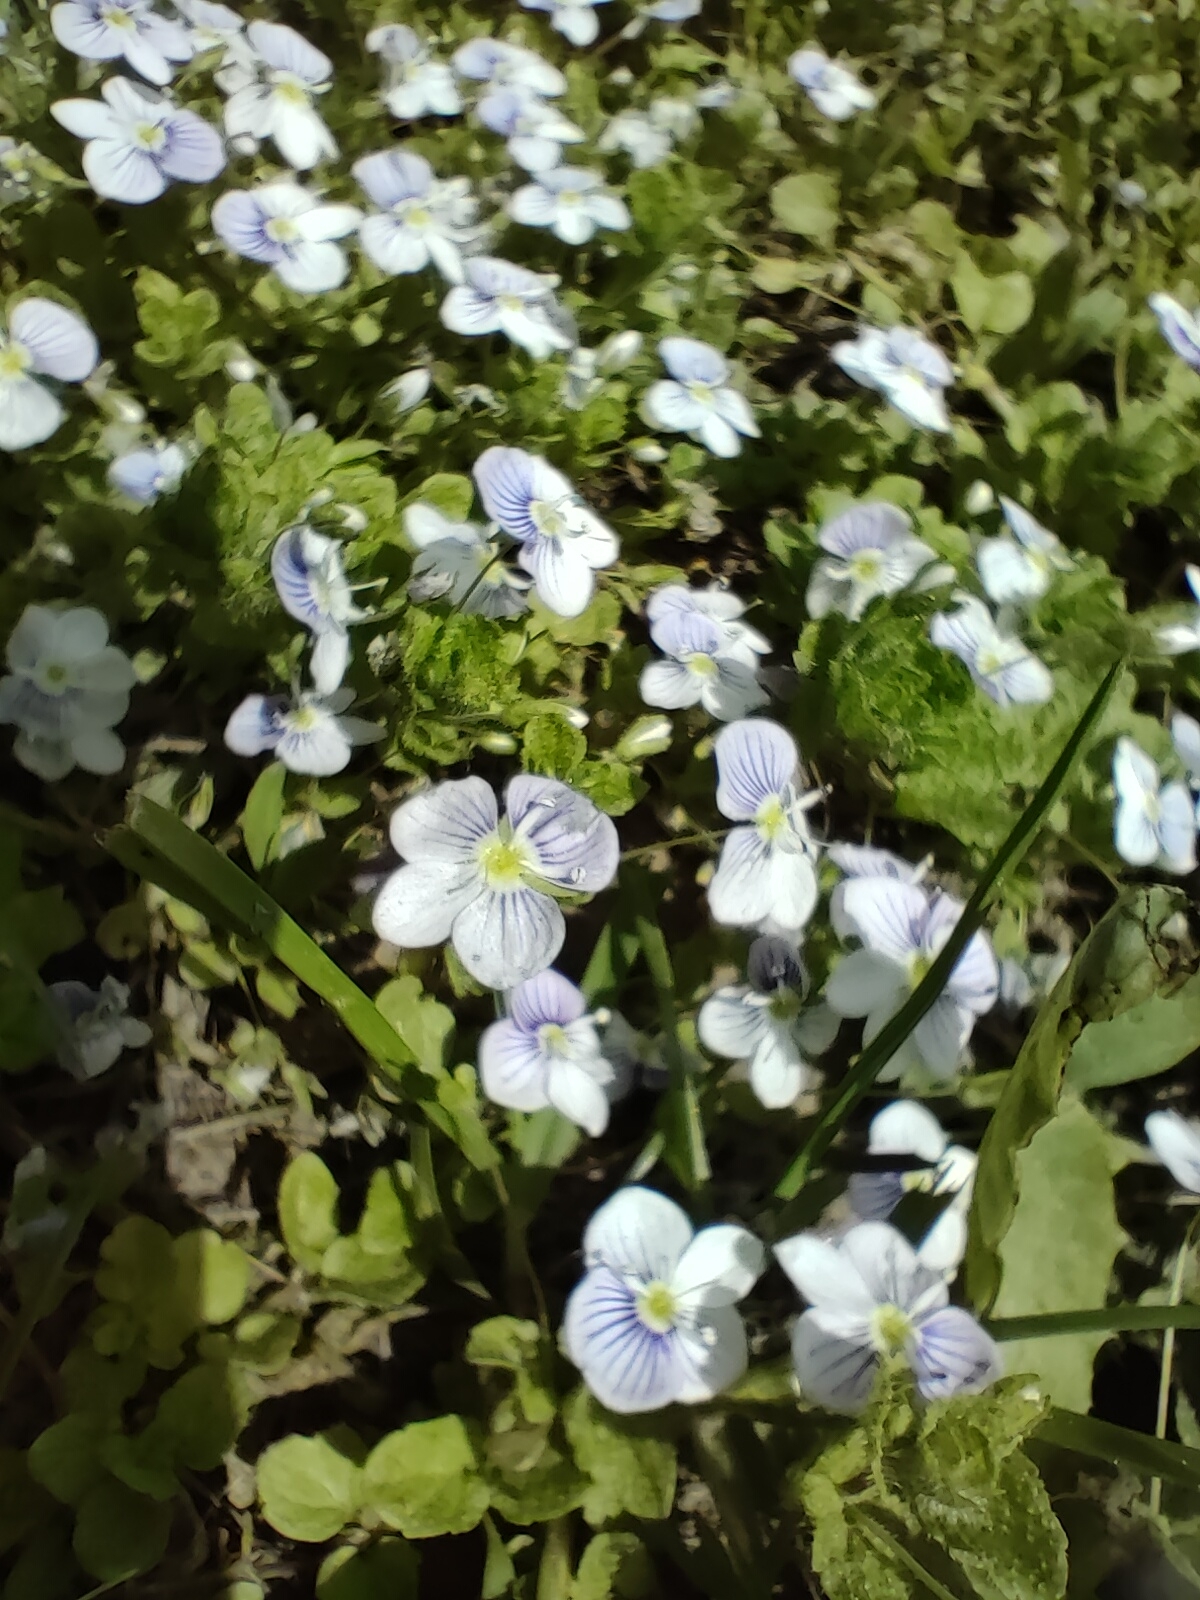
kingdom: Plantae
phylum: Tracheophyta
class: Magnoliopsida
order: Lamiales
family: Plantaginaceae
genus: Veronica
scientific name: Veronica filiformis
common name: Slender speedwell
